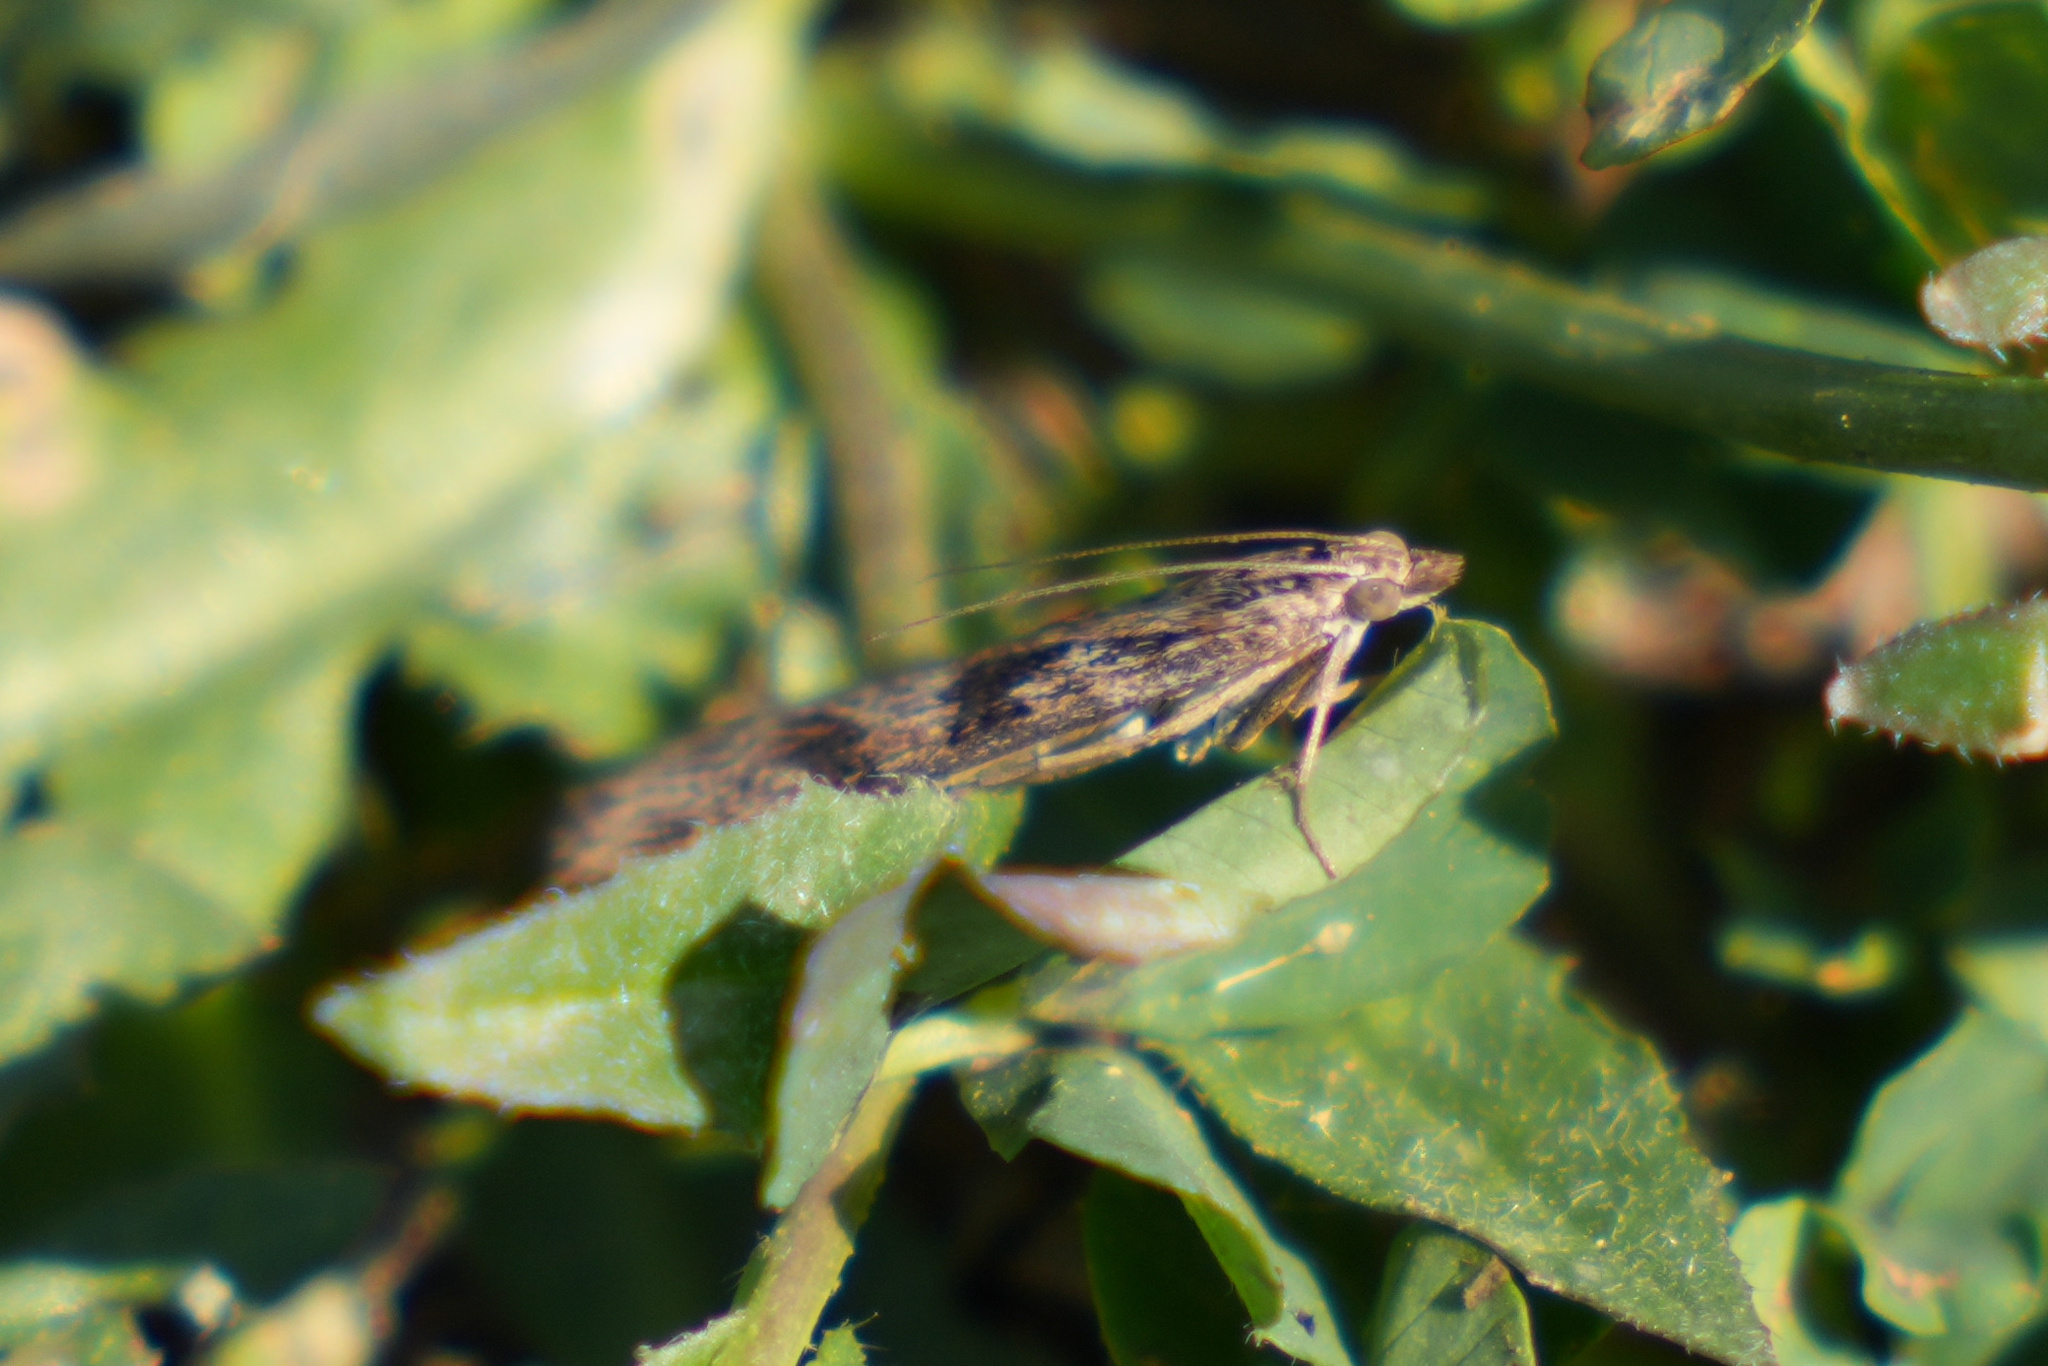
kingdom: Animalia
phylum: Arthropoda
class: Insecta
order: Lepidoptera
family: Crambidae
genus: Nomophila
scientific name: Nomophila nearctica
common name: American rush veneer
